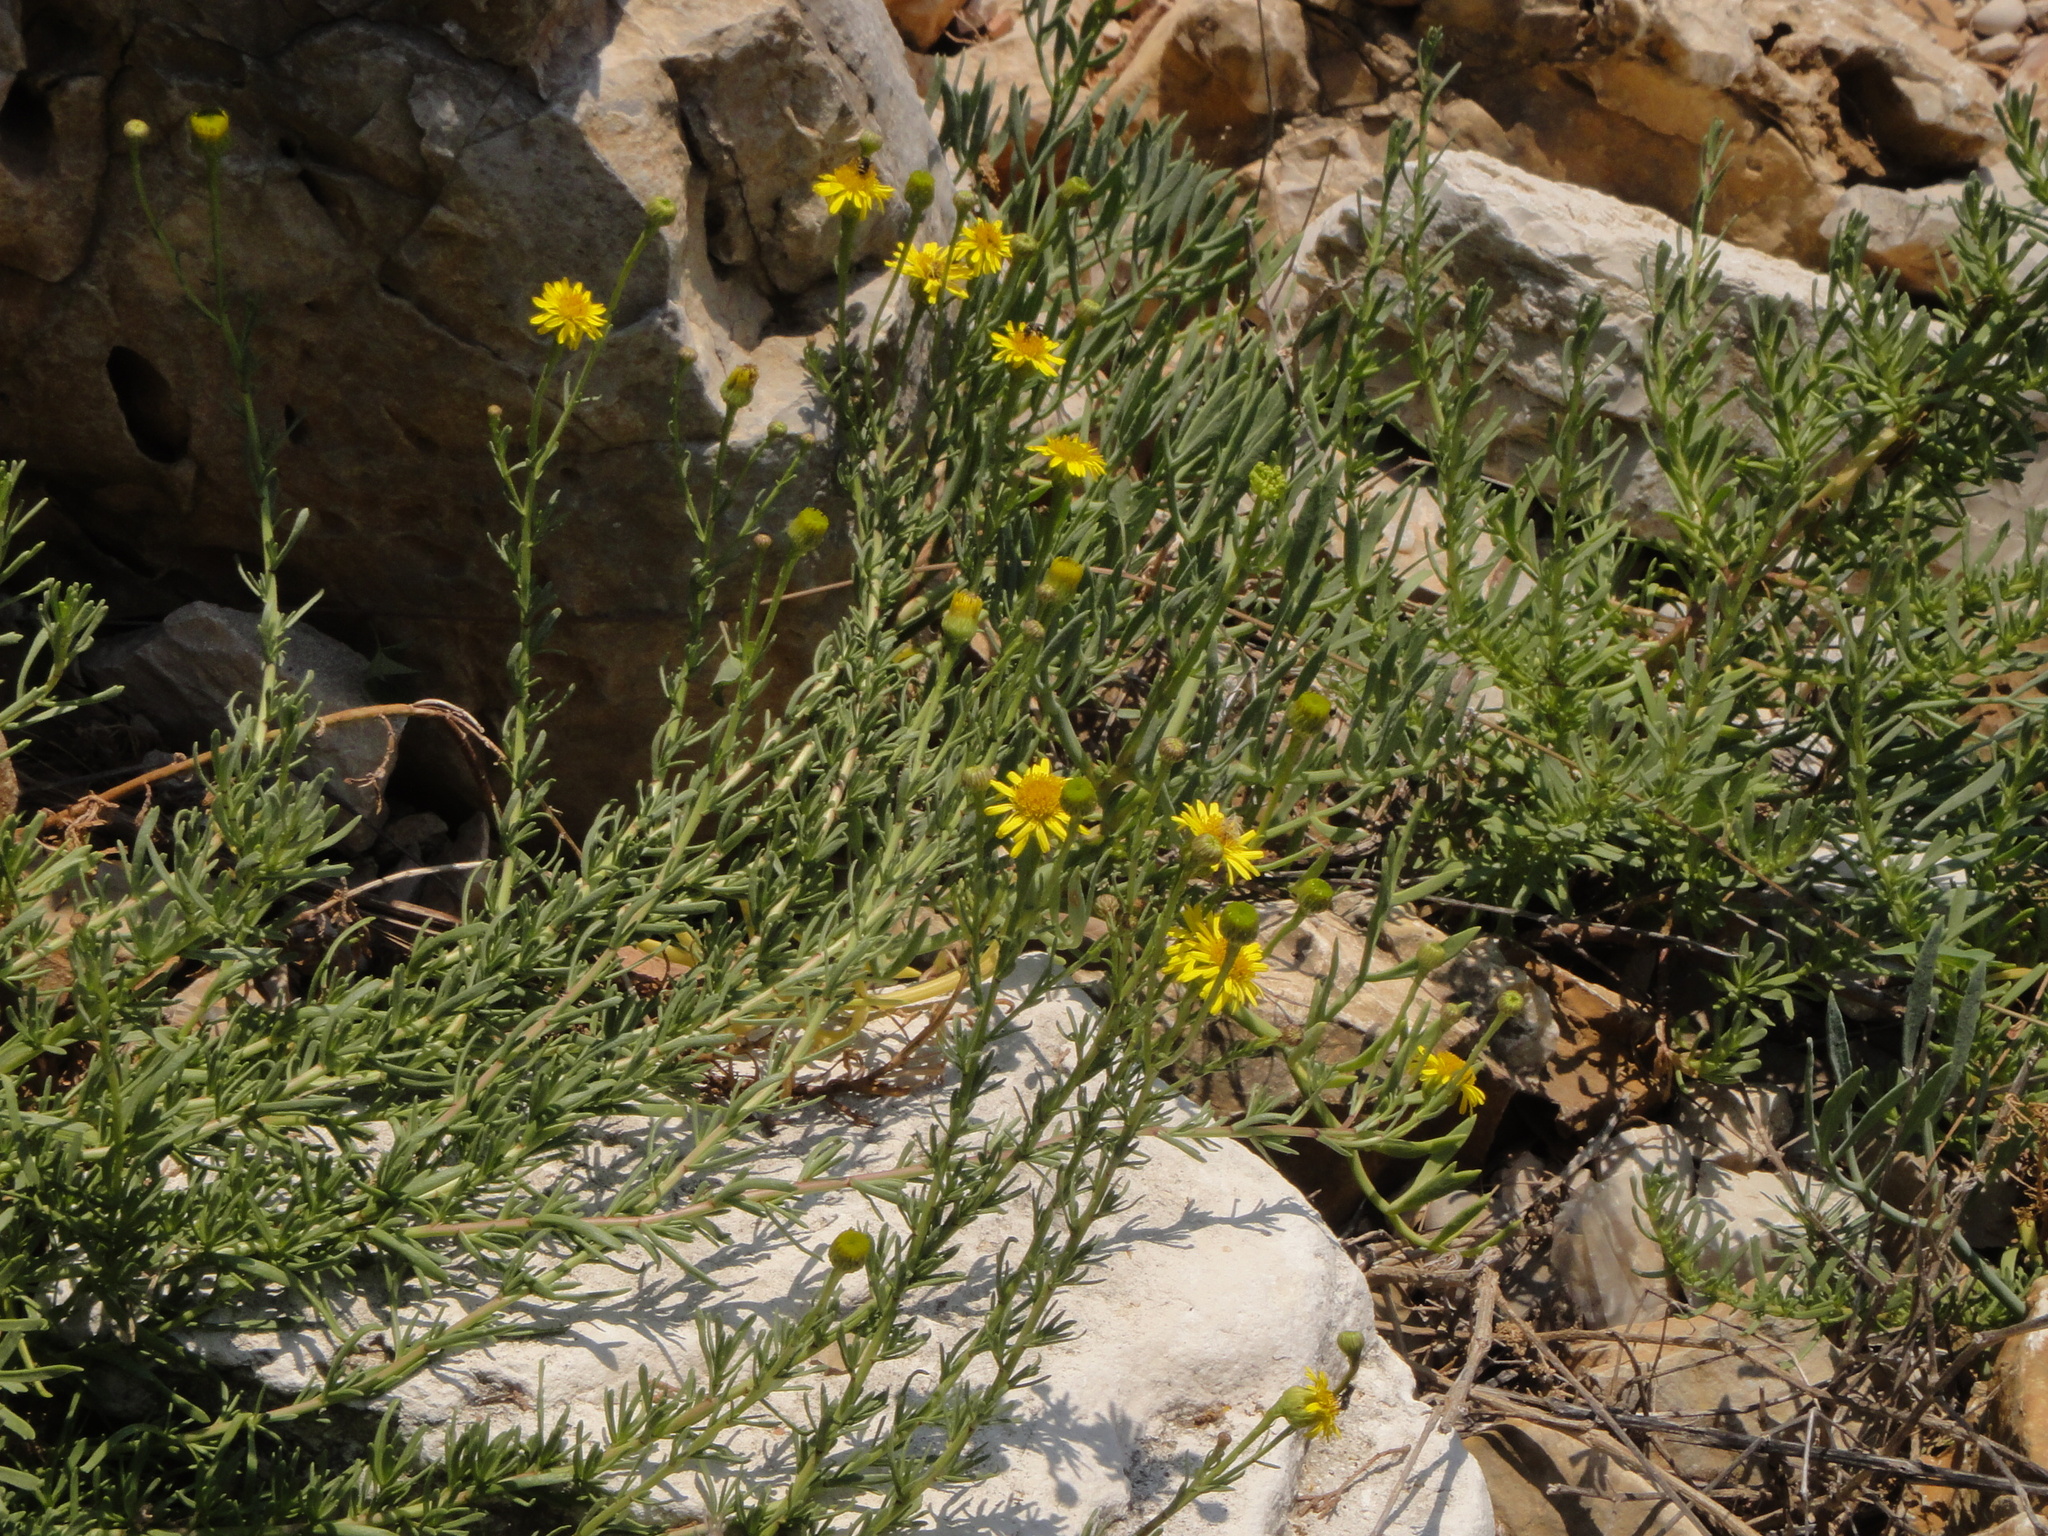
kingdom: Plantae
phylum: Tracheophyta
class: Magnoliopsida
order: Asterales
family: Asteraceae
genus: Limbarda
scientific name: Limbarda crithmoides
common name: Golden samphire
